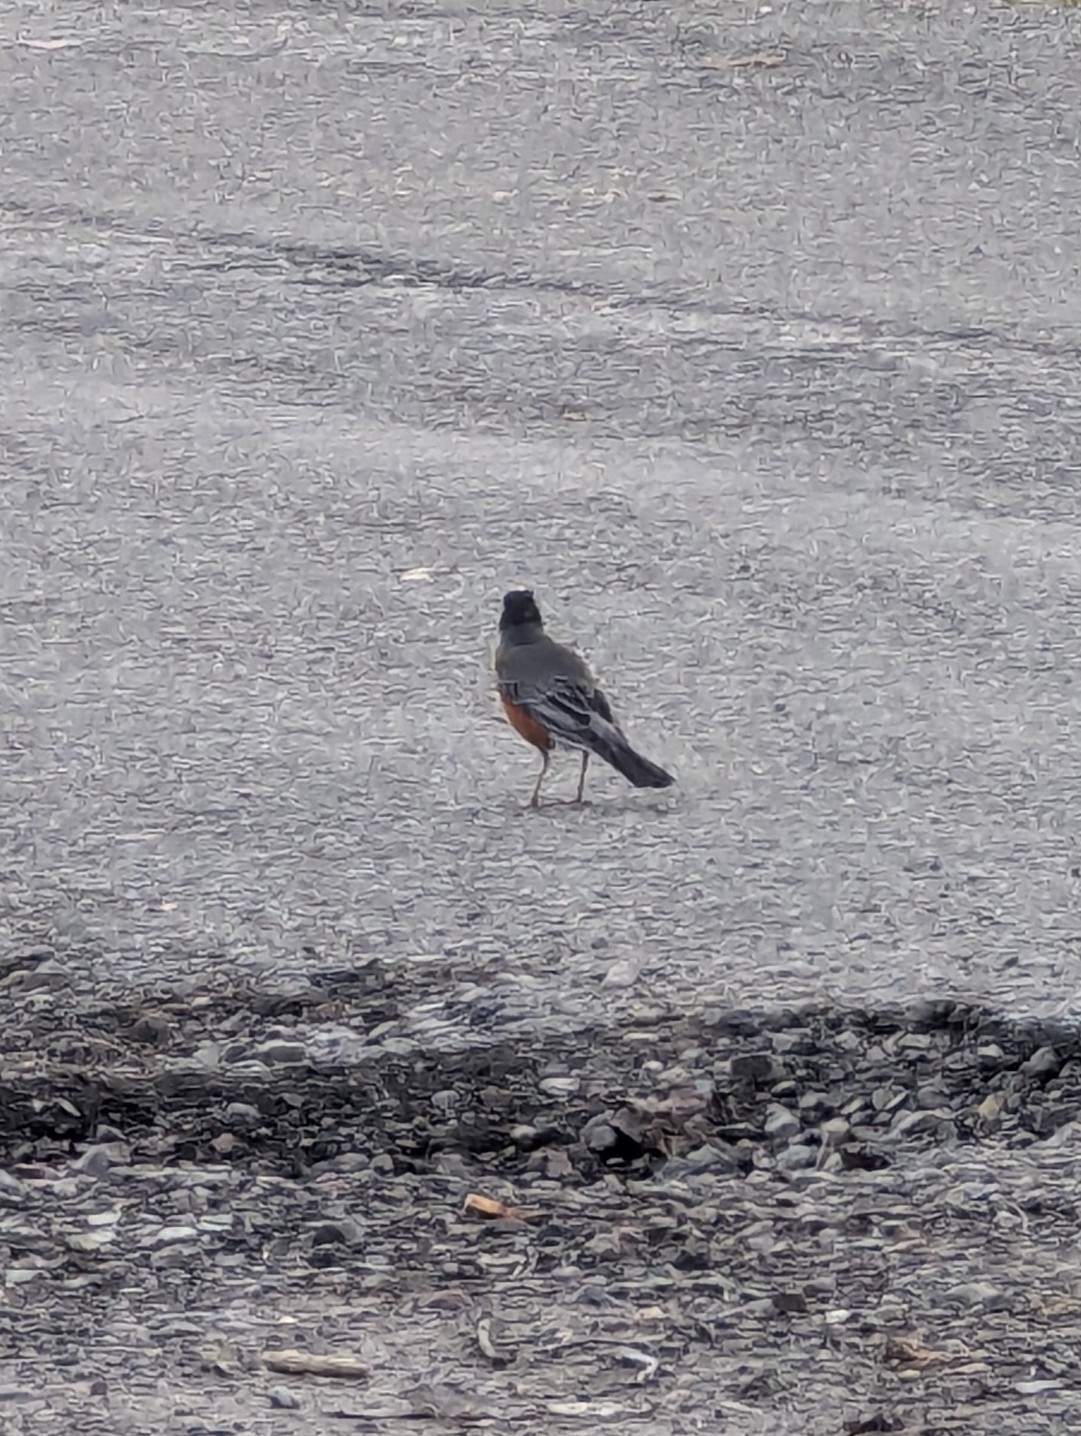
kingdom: Animalia
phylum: Chordata
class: Aves
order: Passeriformes
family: Turdidae
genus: Turdus
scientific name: Turdus migratorius
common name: American robin
